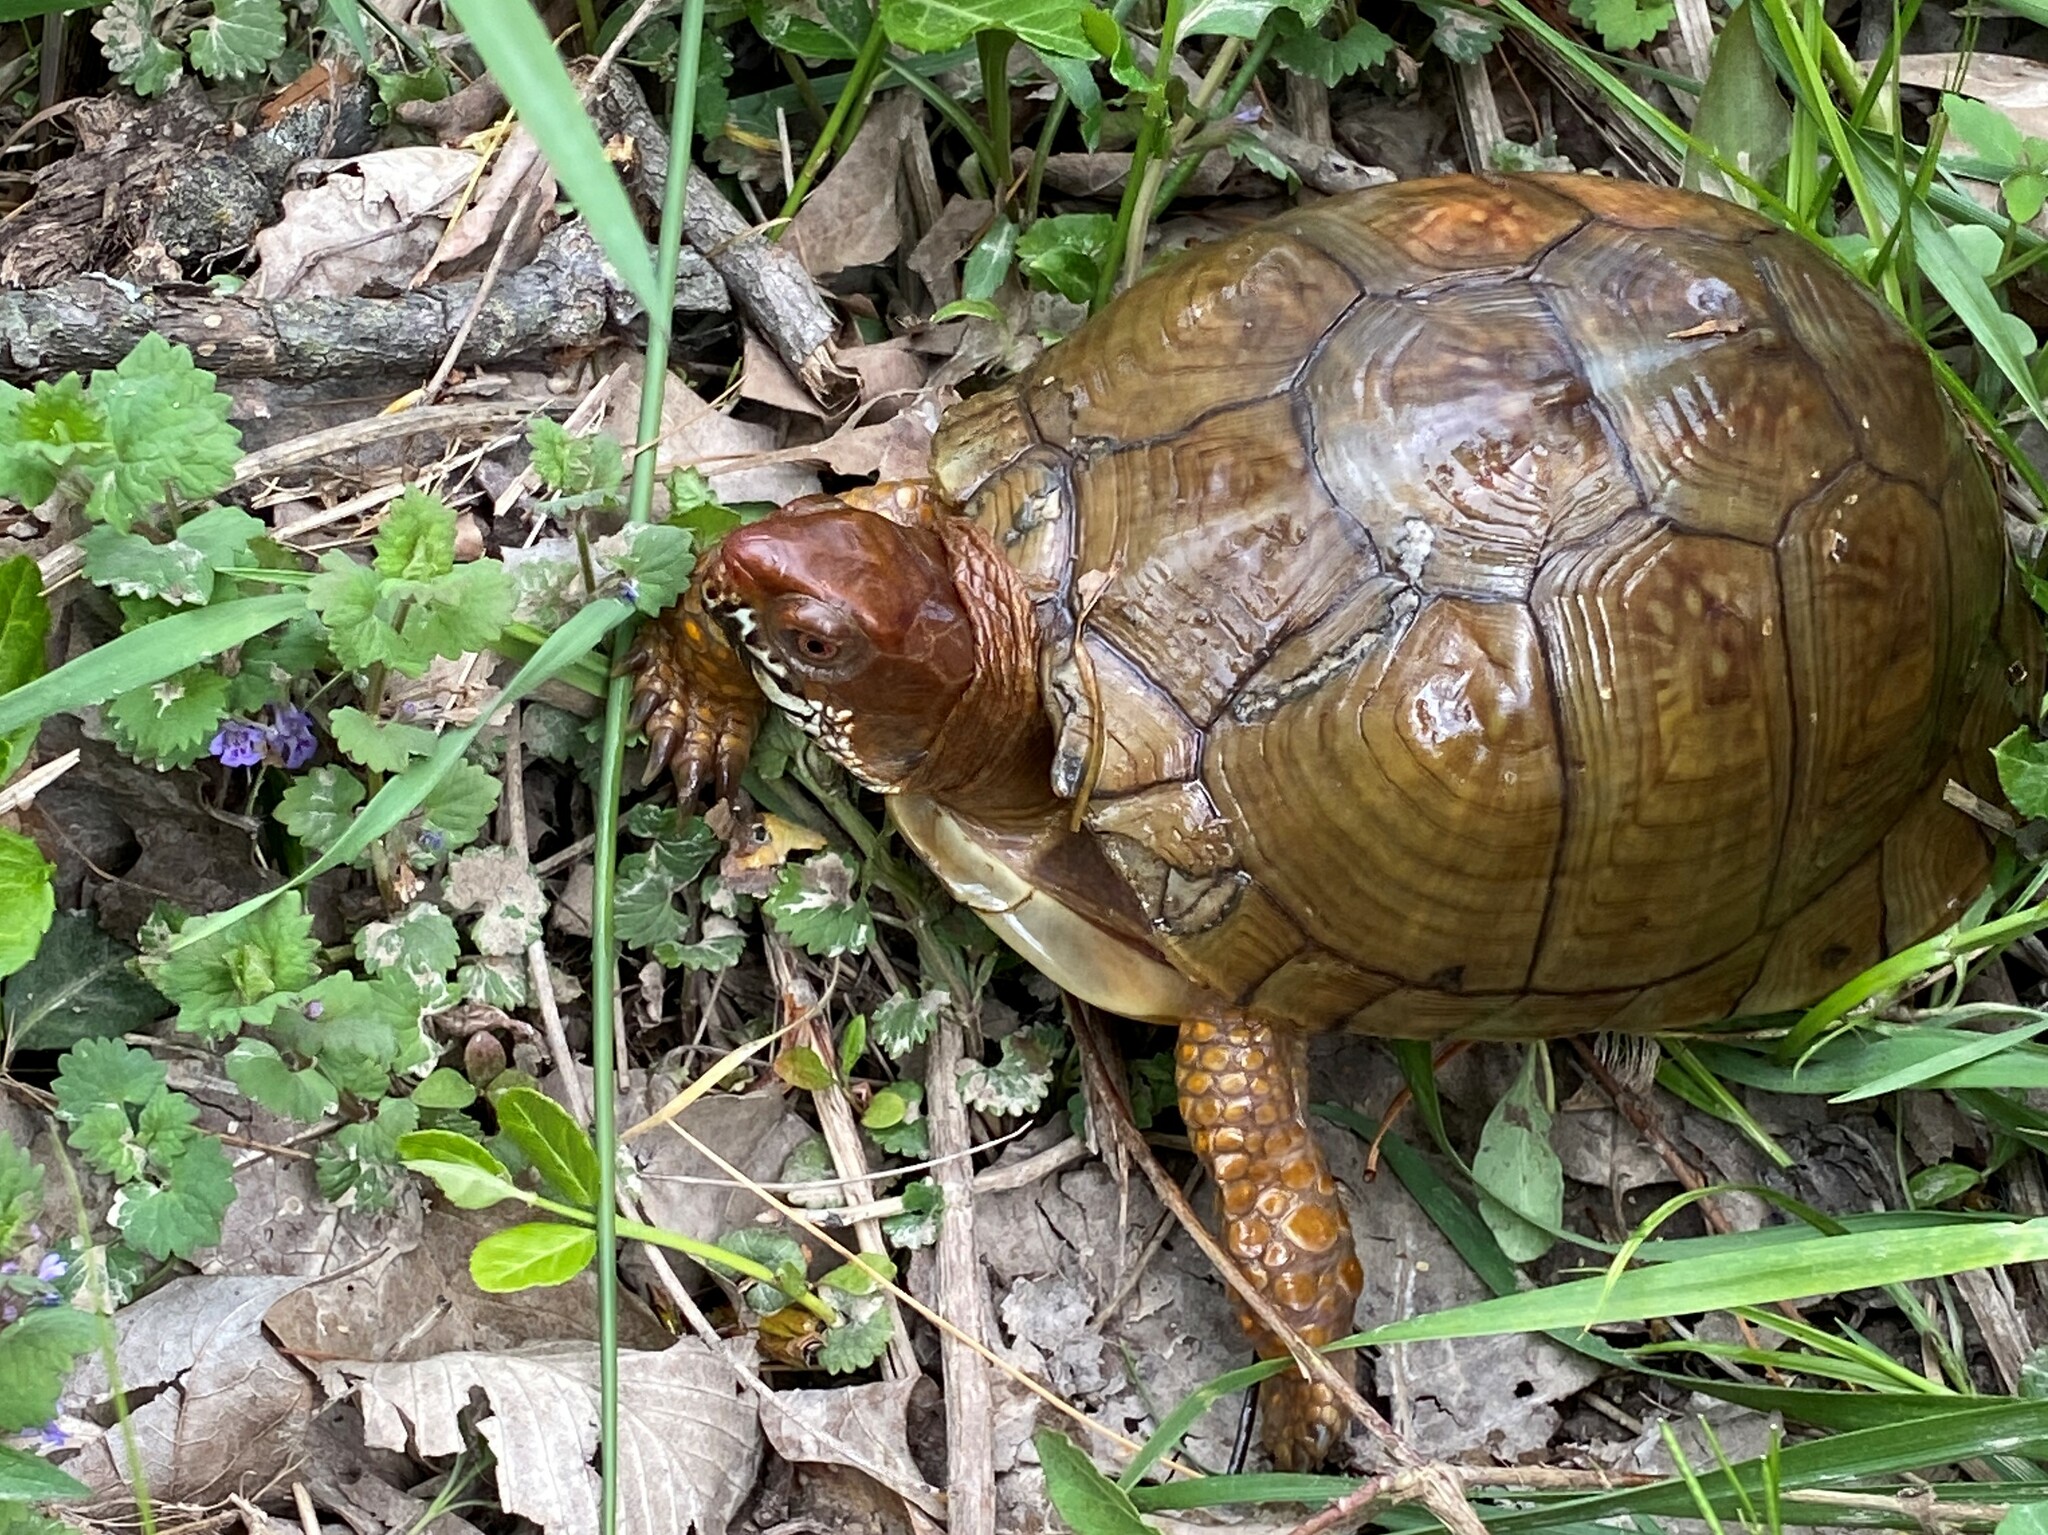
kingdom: Animalia
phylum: Chordata
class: Testudines
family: Emydidae
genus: Terrapene
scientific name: Terrapene carolina
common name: Common box turtle
